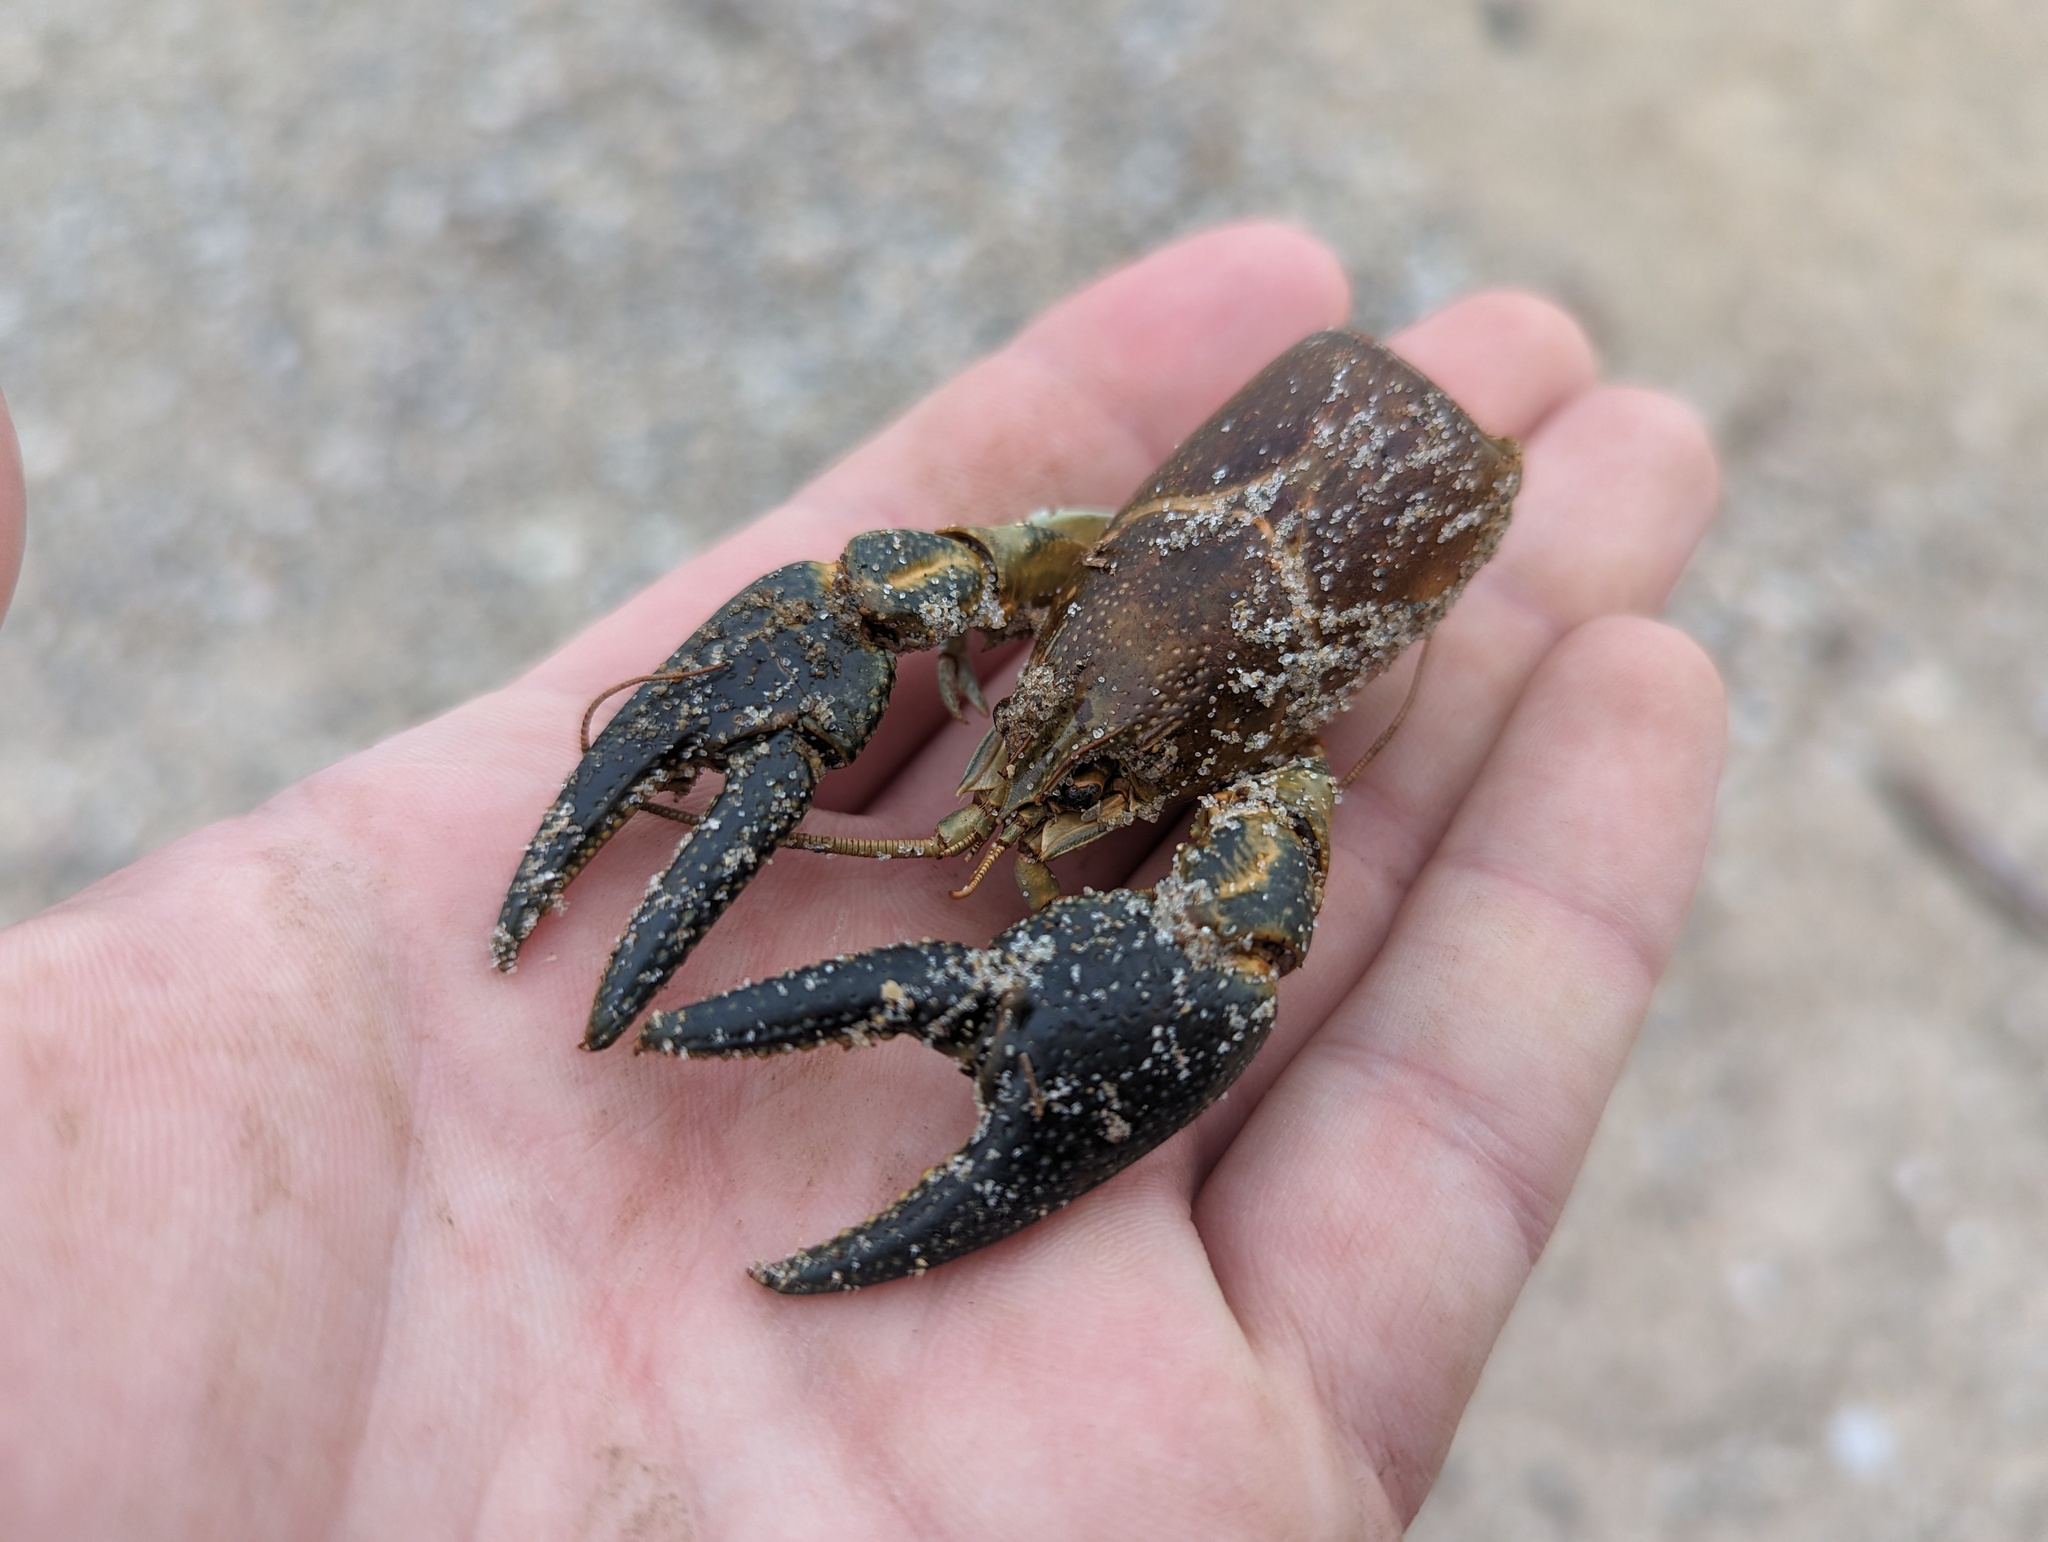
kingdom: Animalia
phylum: Arthropoda
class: Malacostraca
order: Decapoda
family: Cambaridae
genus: Faxonius
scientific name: Faxonius rusticus
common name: Rusty crayfish
